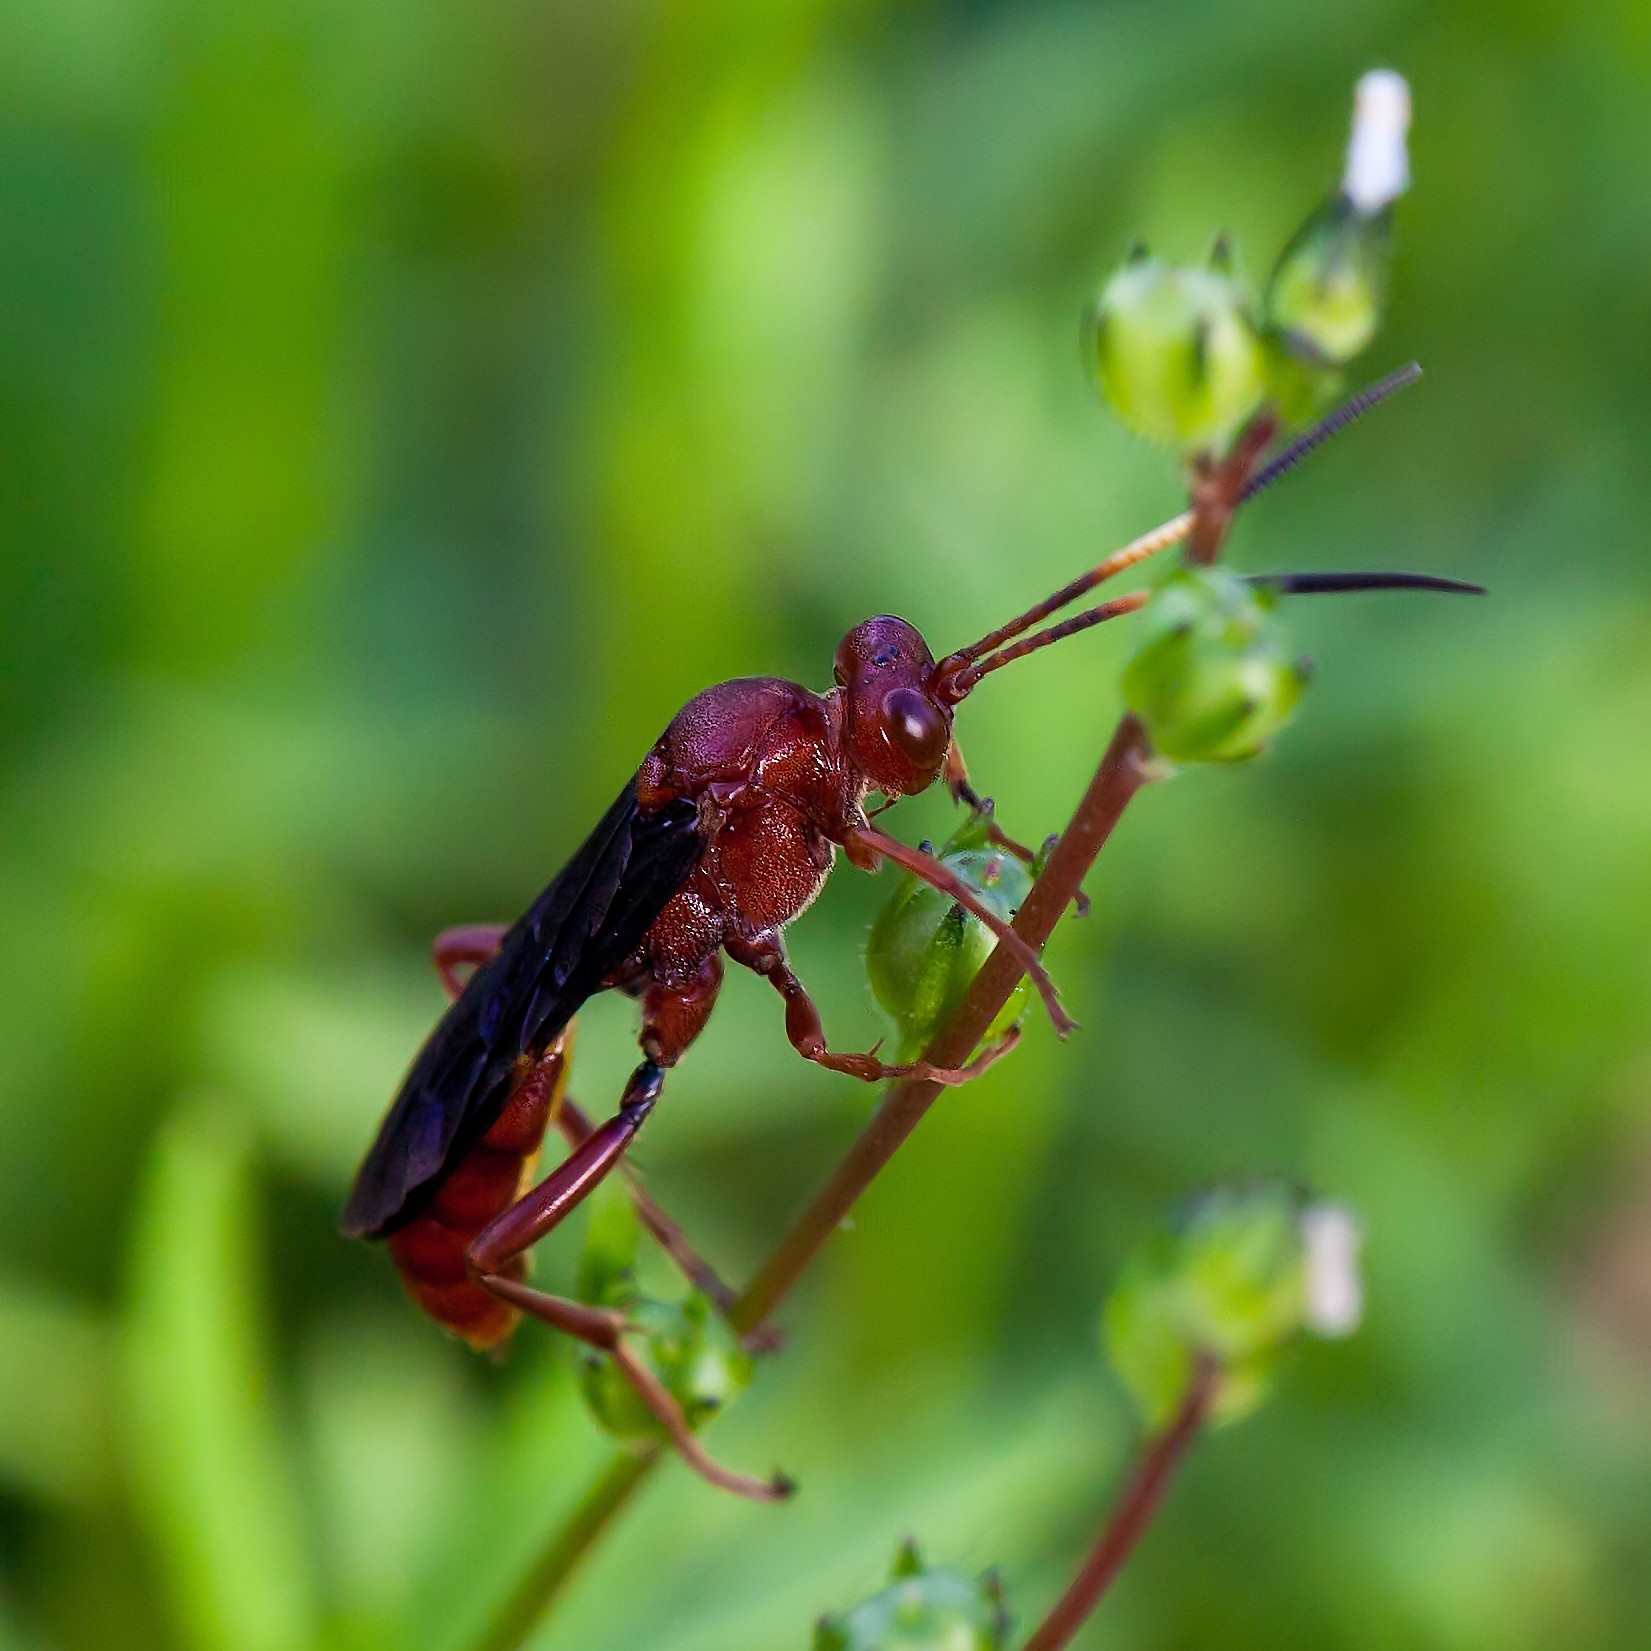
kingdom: Animalia
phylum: Arthropoda
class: Insecta
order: Hymenoptera
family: Ichneumonidae
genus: Trogomorpha
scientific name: Trogomorpha trogiformis
